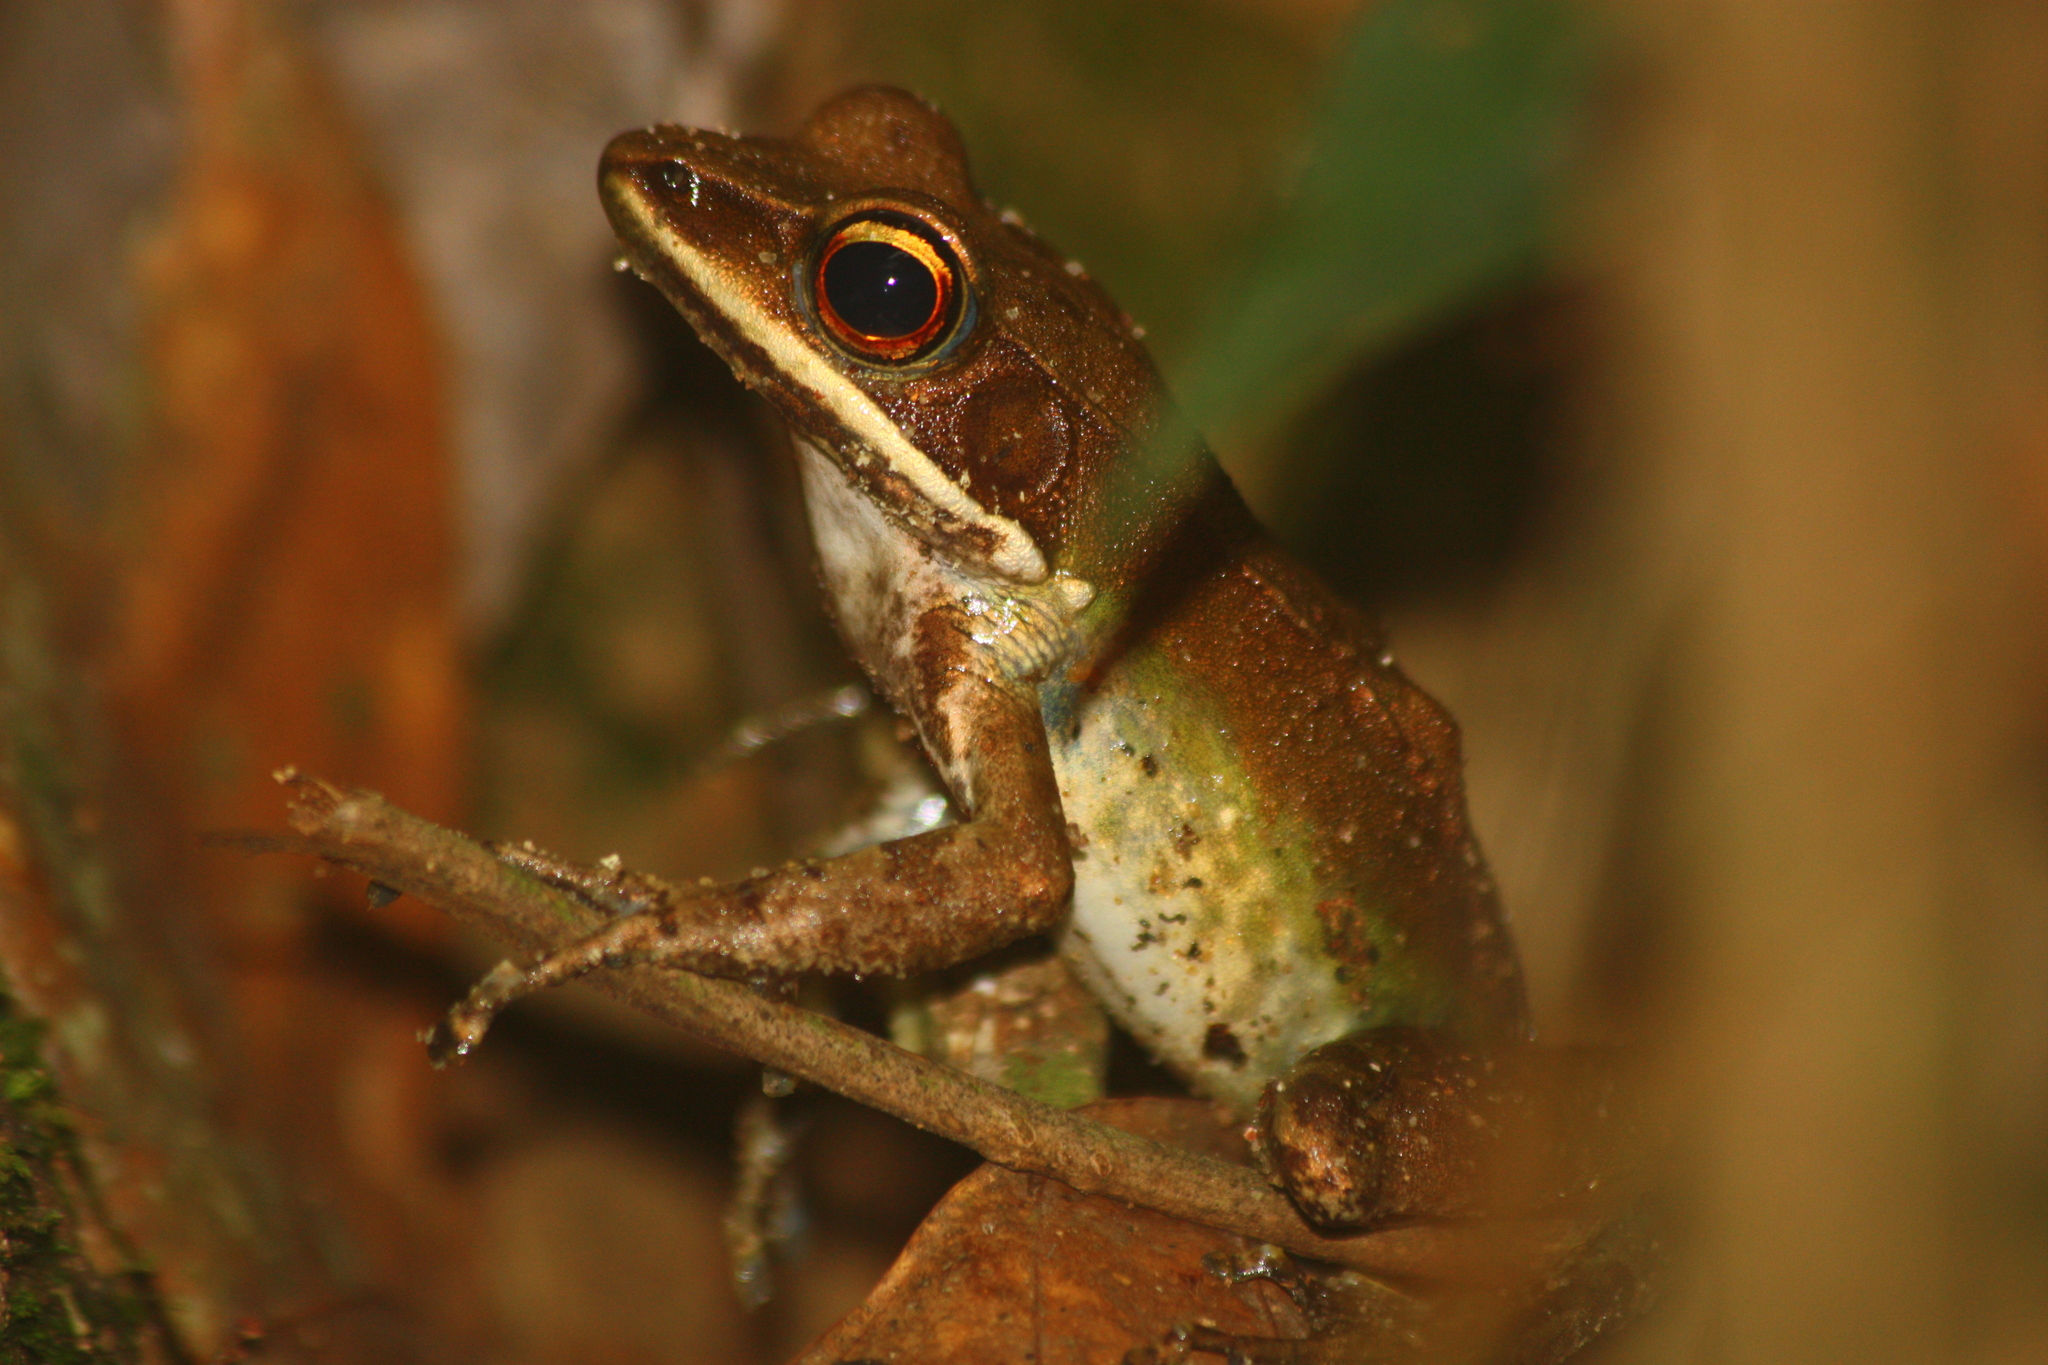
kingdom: Animalia
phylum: Chordata
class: Amphibia
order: Anura
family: Ranidae
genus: Amnirana
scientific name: Amnirana parva
